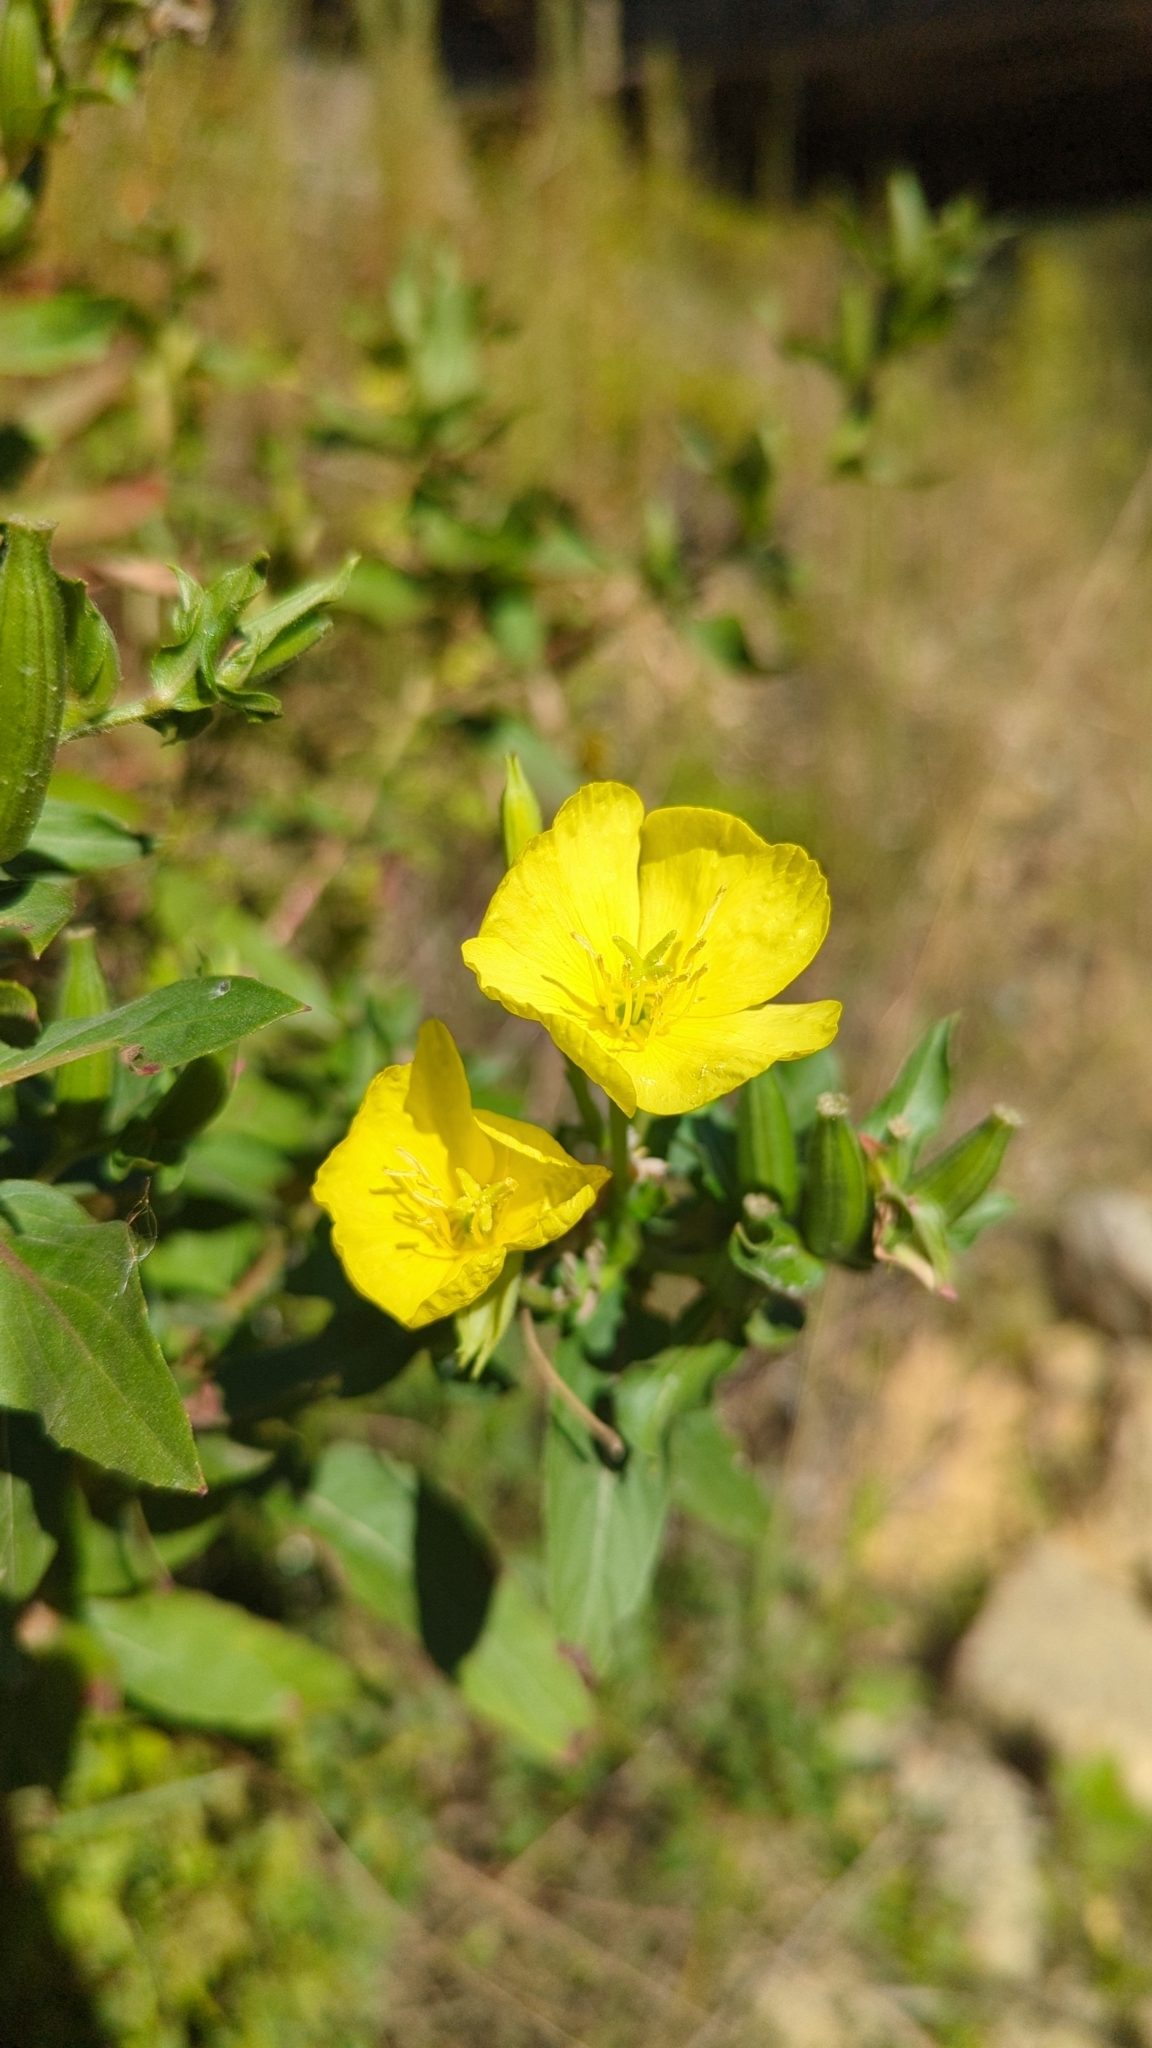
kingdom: Plantae
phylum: Tracheophyta
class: Magnoliopsida
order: Myrtales
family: Onagraceae
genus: Oenothera
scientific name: Oenothera biennis
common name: Common evening-primrose
